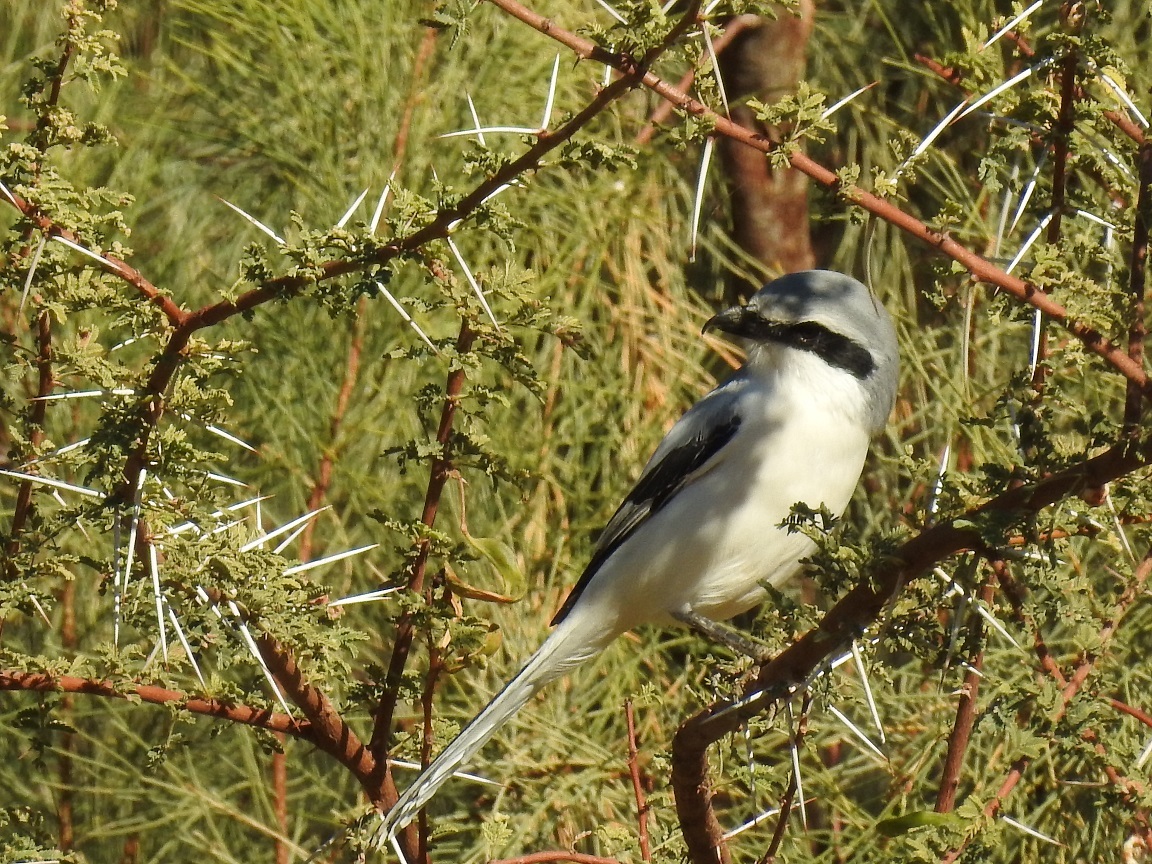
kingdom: Animalia
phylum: Chordata
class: Aves
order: Passeriformes
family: Laniidae
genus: Lanius
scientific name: Lanius excubitor
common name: Great grey shrike
